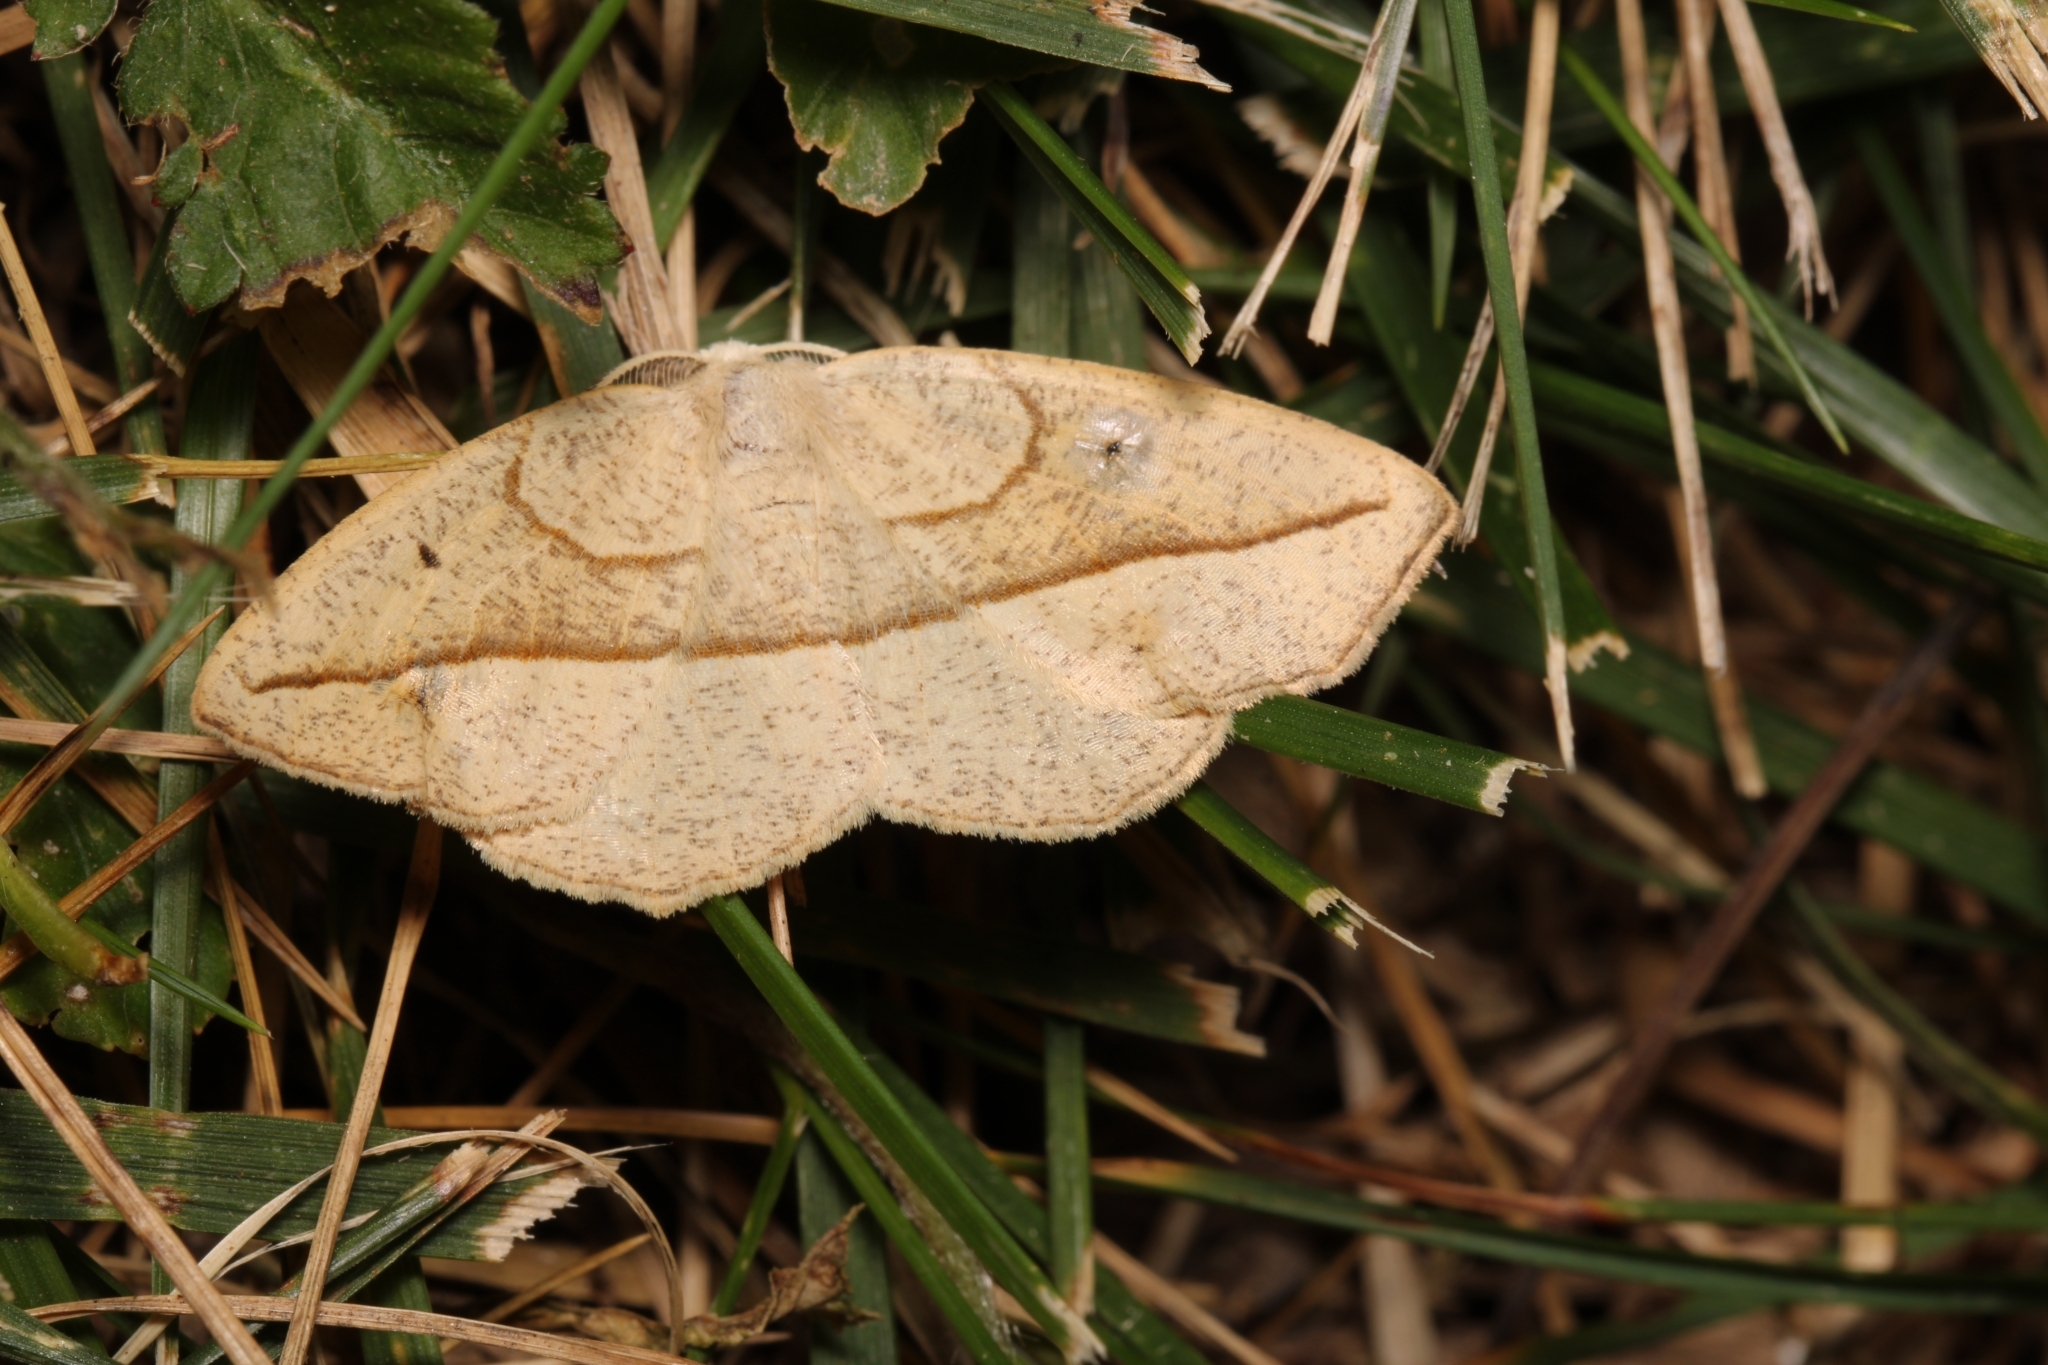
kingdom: Animalia
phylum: Arthropoda
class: Insecta
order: Lepidoptera
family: Geometridae
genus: Eusarca
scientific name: Eusarca confusaria
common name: Confused eusarca
